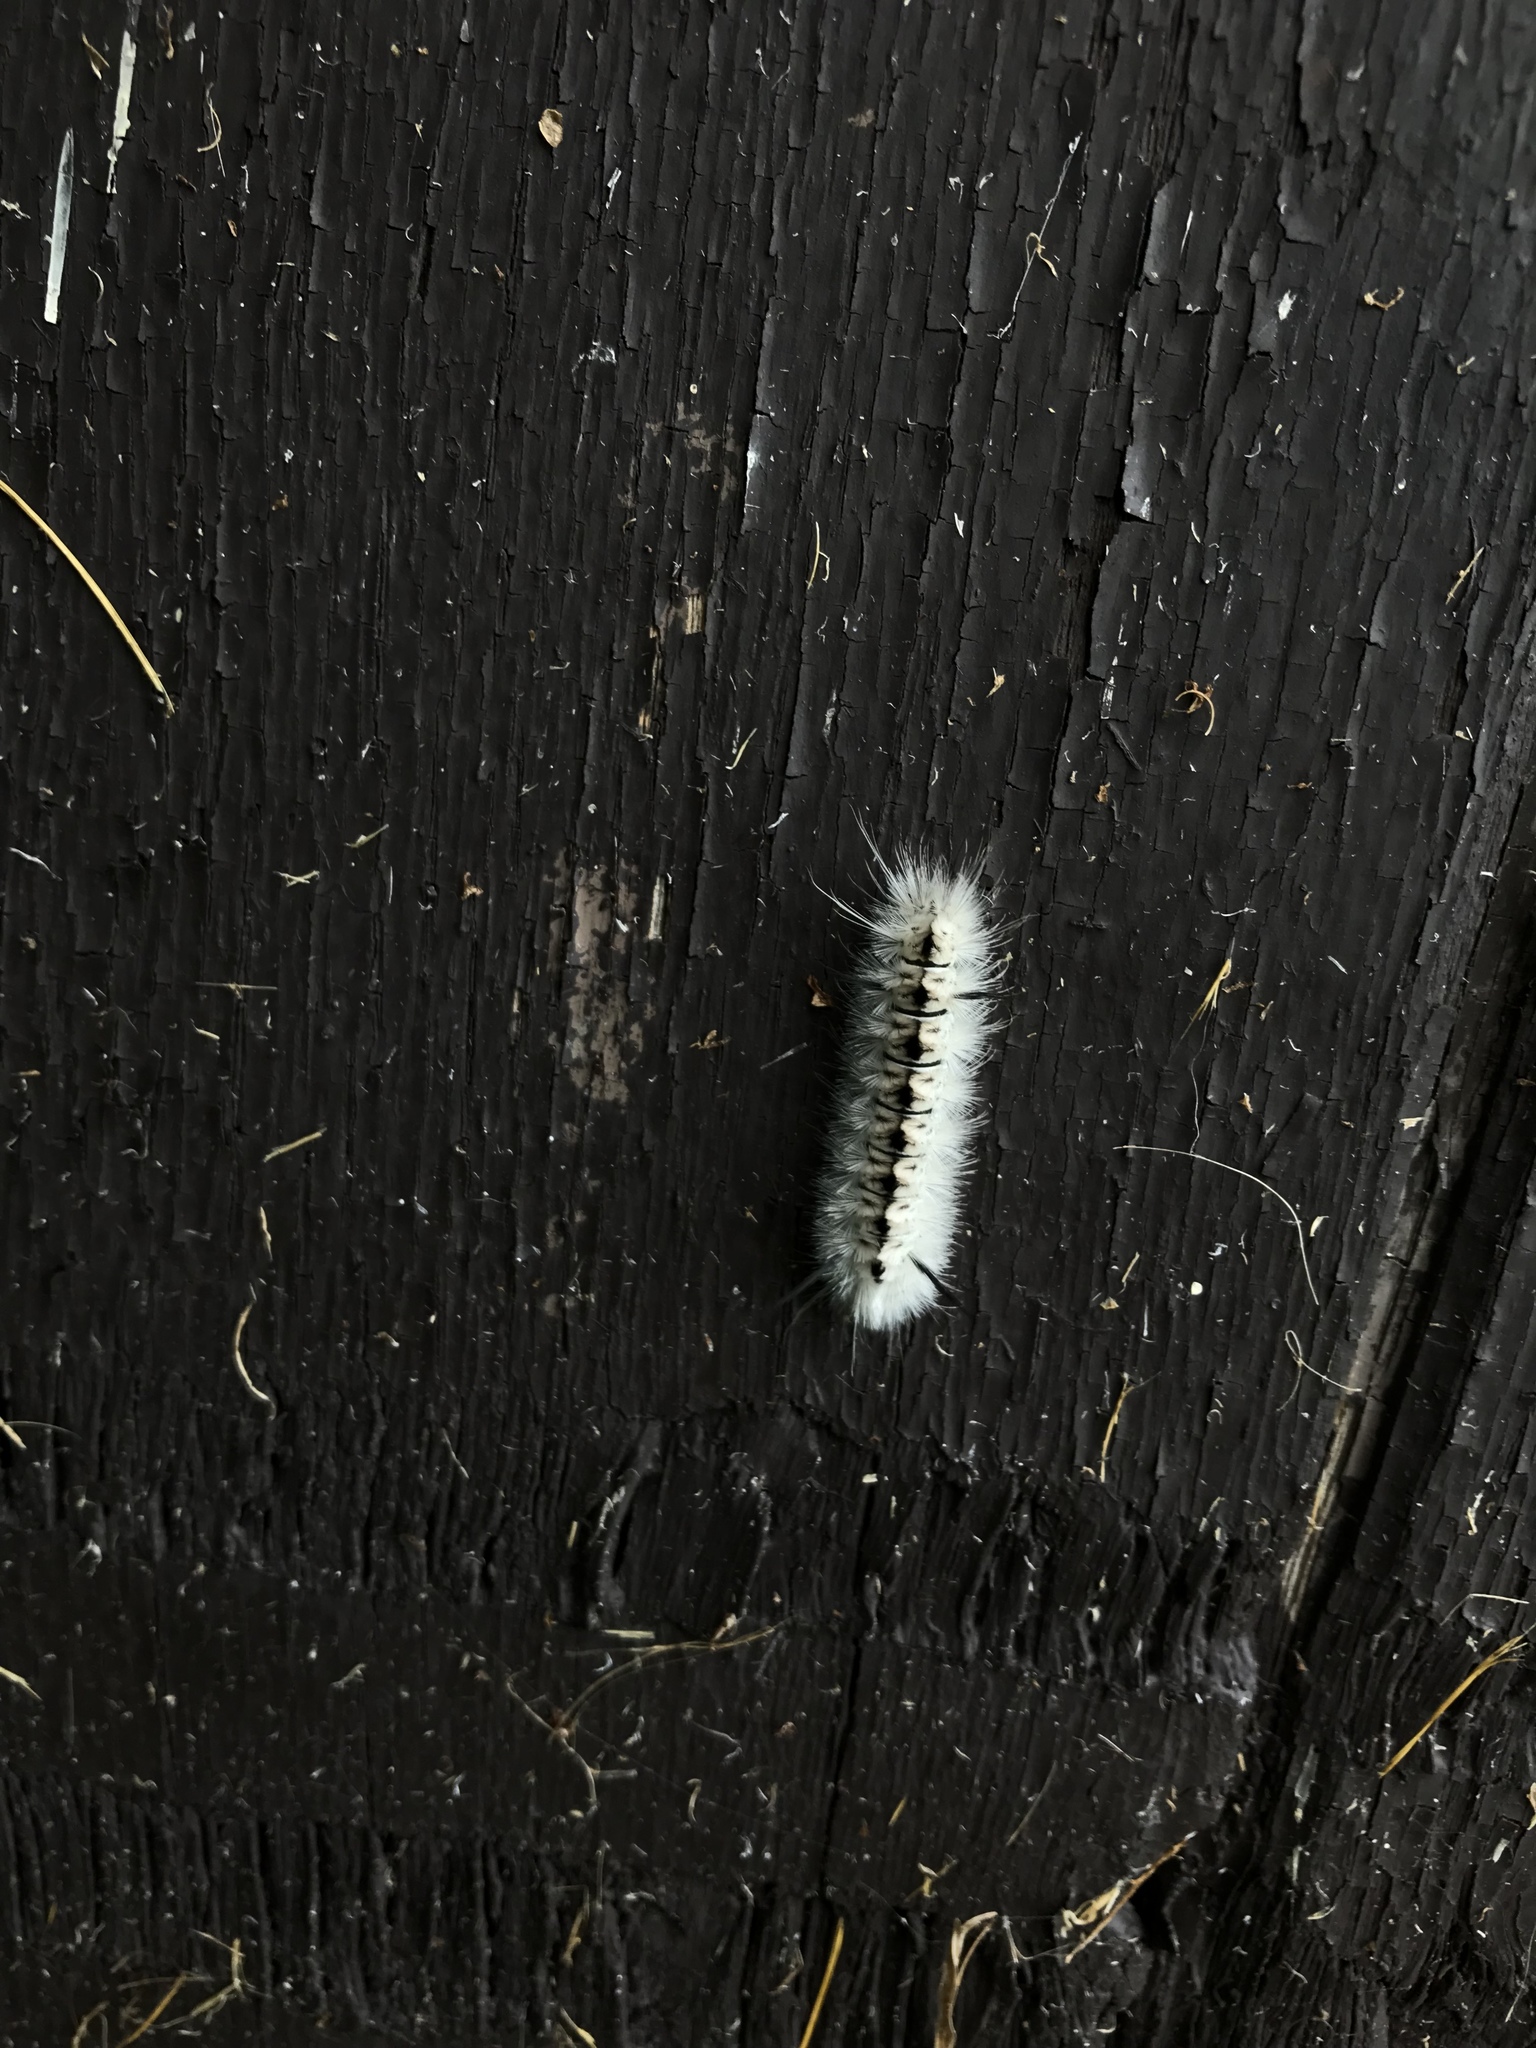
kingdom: Animalia
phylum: Arthropoda
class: Insecta
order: Lepidoptera
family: Erebidae
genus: Lophocampa
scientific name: Lophocampa caryae
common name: Hickory tussock moth
